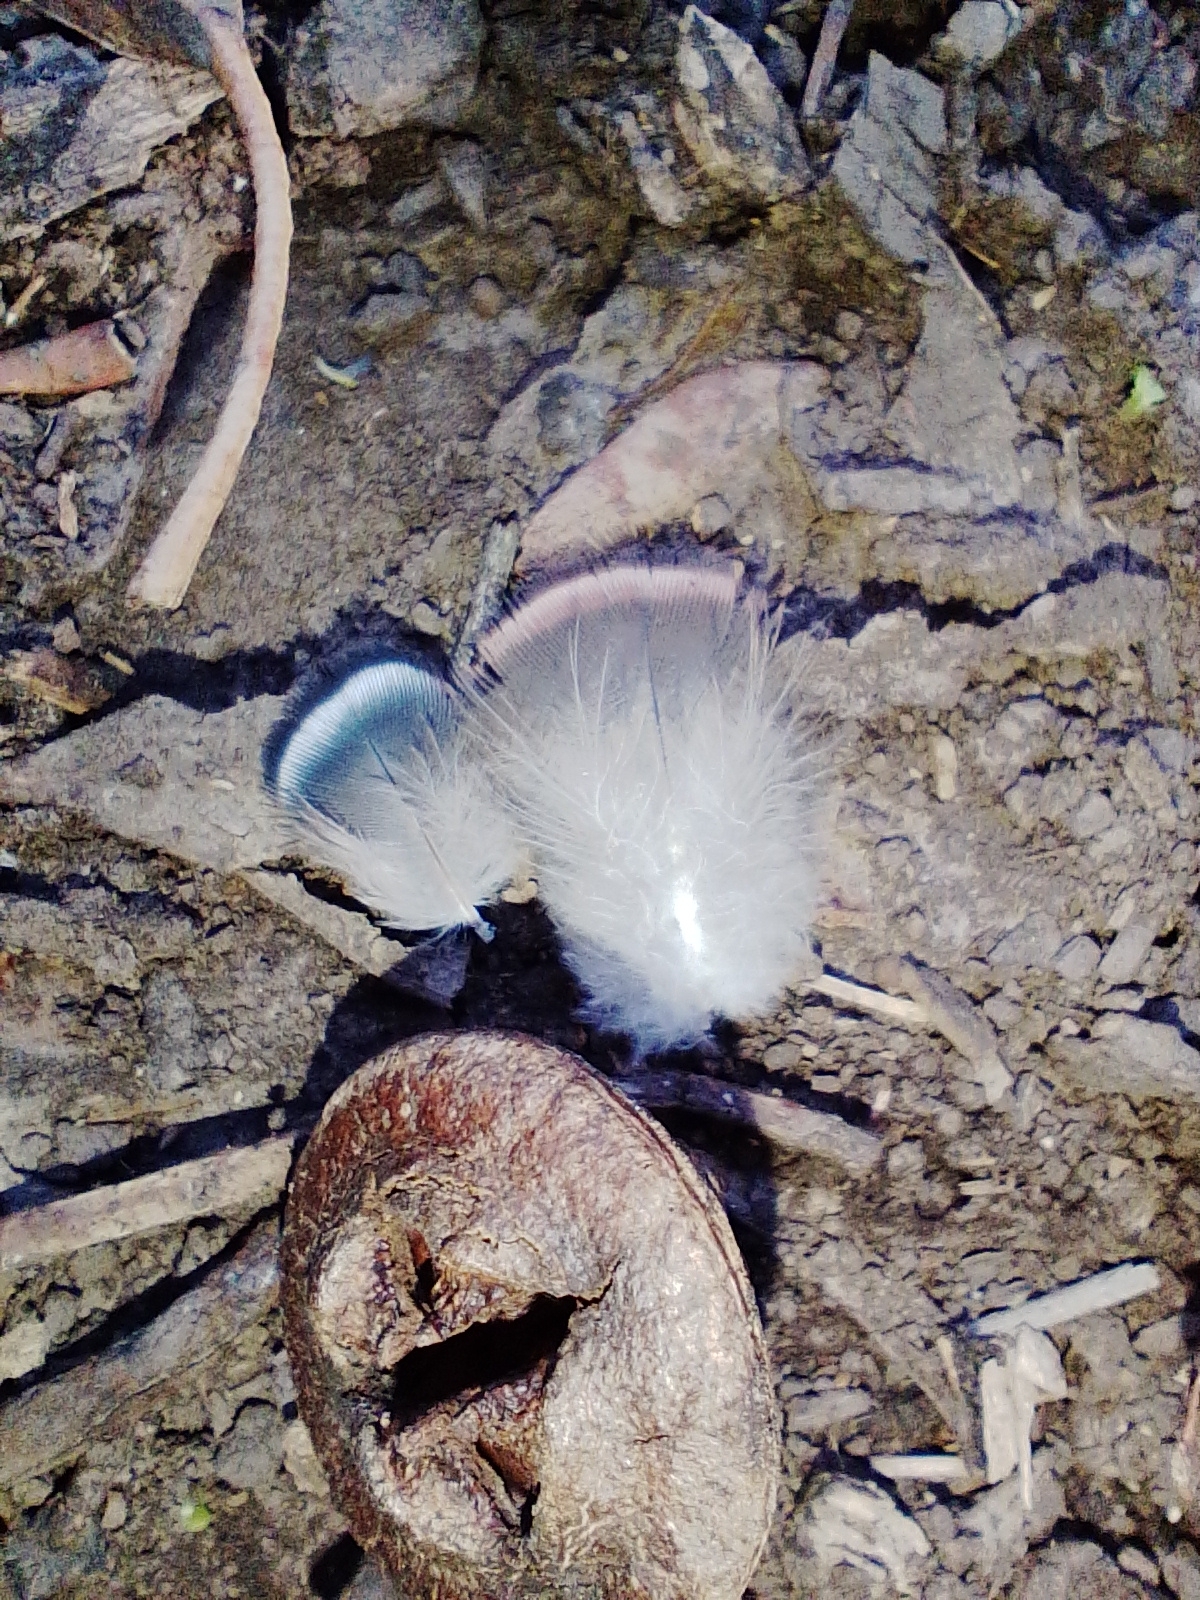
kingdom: Animalia
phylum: Chordata
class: Aves
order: Columbiformes
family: Columbidae
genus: Patagioenas
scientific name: Patagioenas picazuro
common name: Picazuro pigeon
